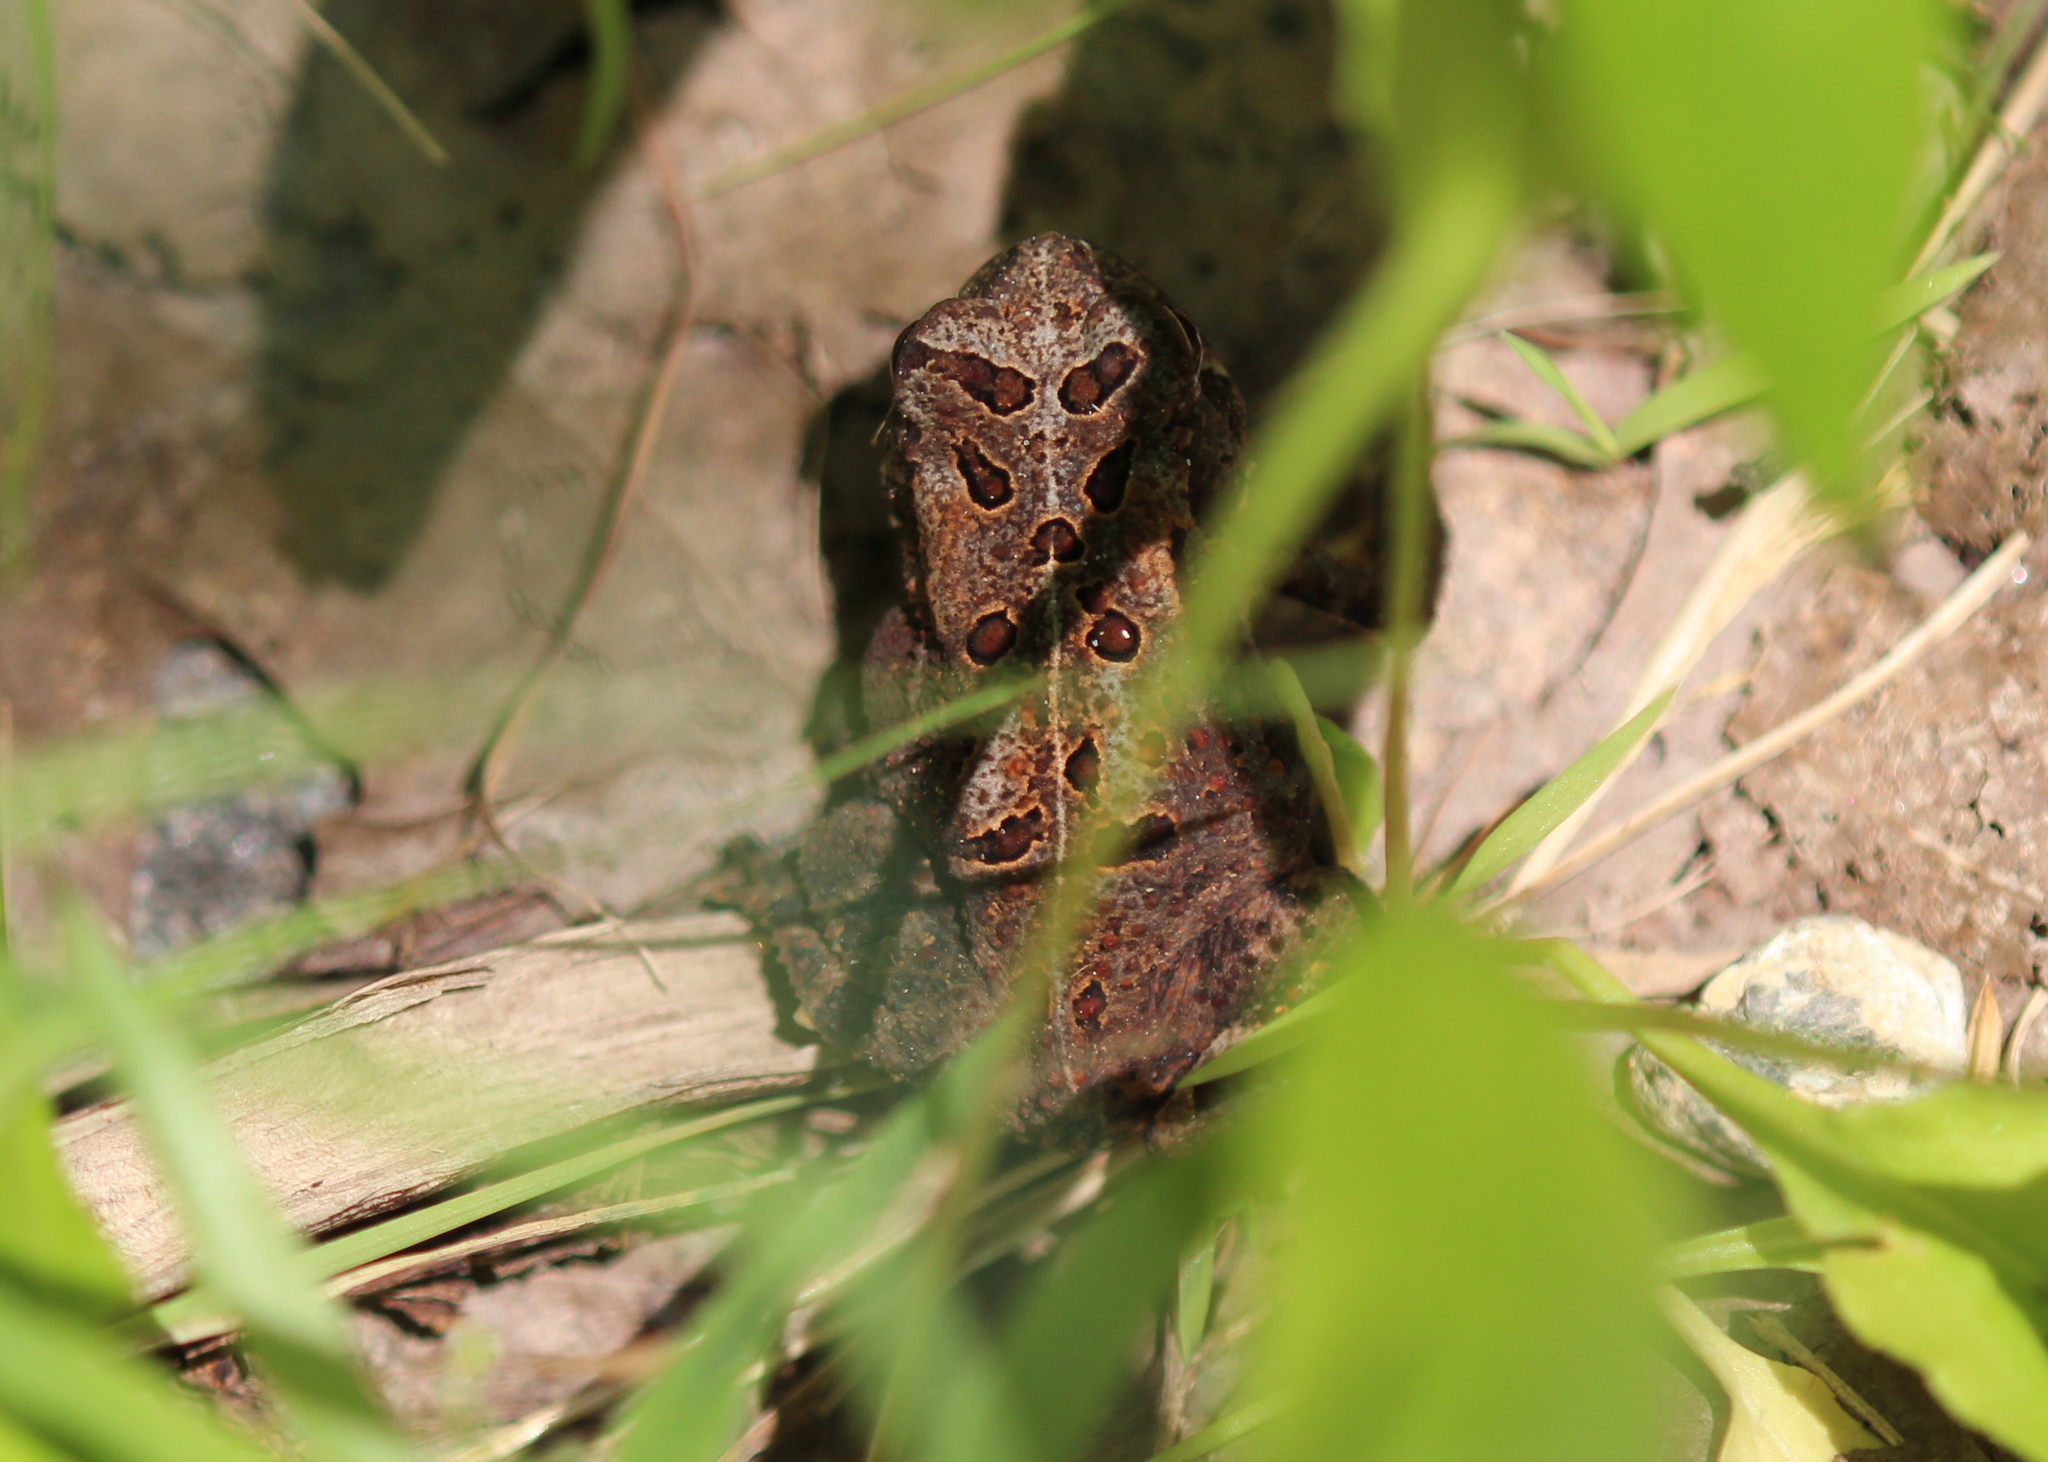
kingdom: Animalia
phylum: Chordata
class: Amphibia
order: Anura
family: Bufonidae
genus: Anaxyrus
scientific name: Anaxyrus americanus
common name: American toad
